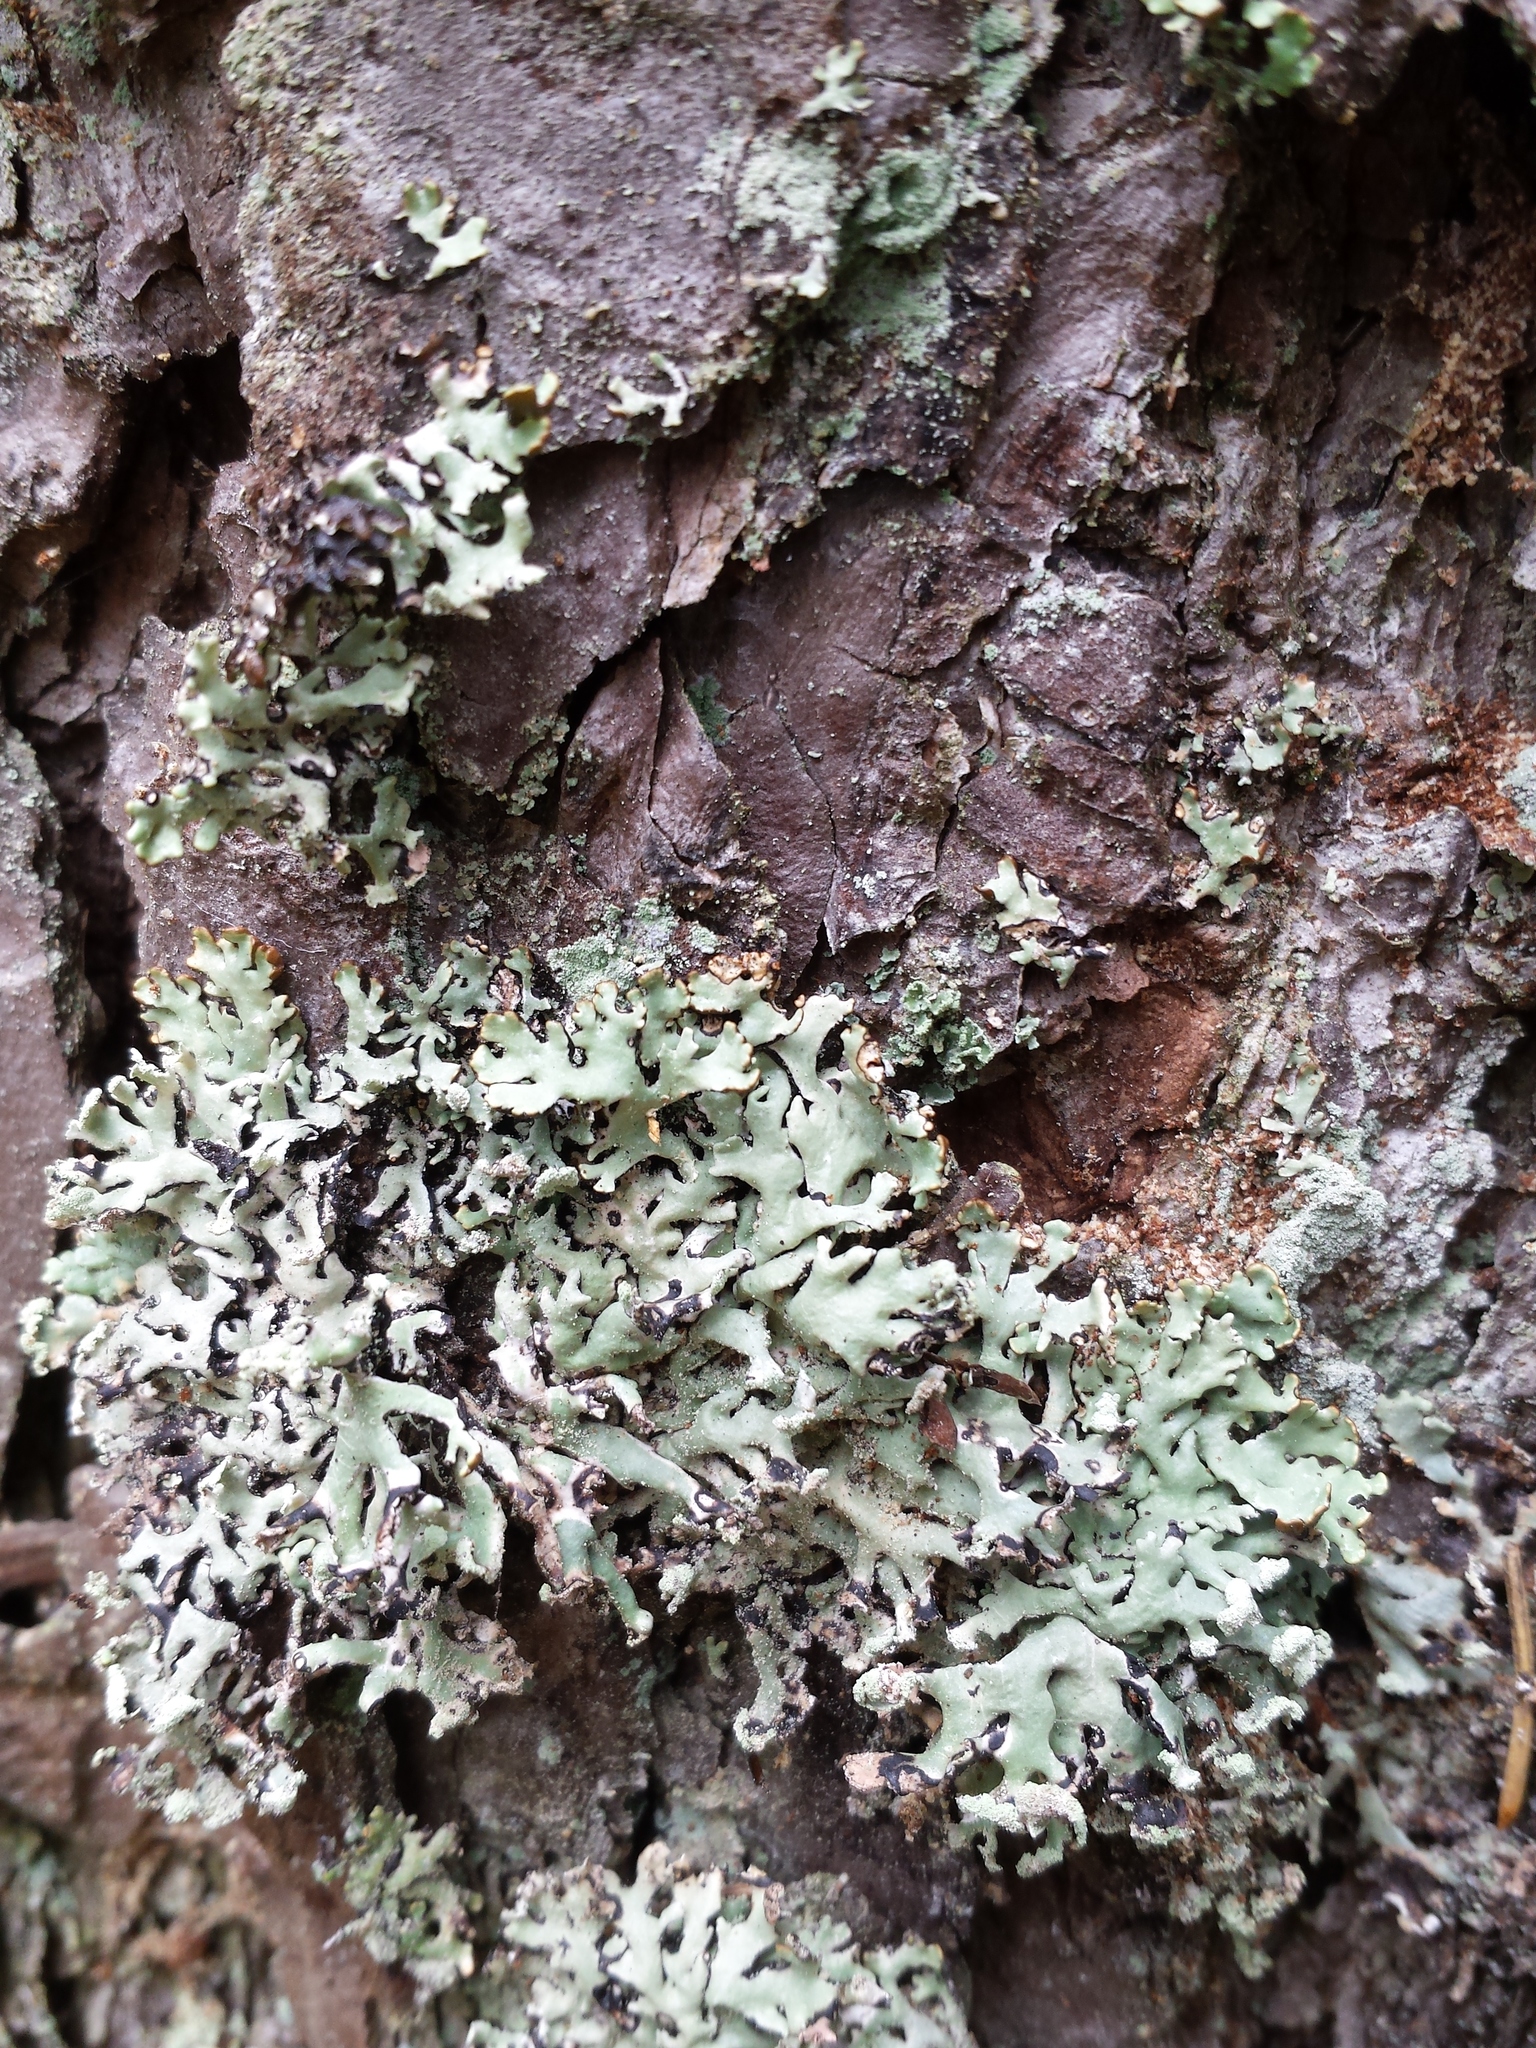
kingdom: Fungi
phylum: Ascomycota
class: Lecanoromycetes
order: Lecanorales
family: Parmeliaceae
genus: Hypogymnia
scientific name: Hypogymnia physodes
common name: Dark crottle
